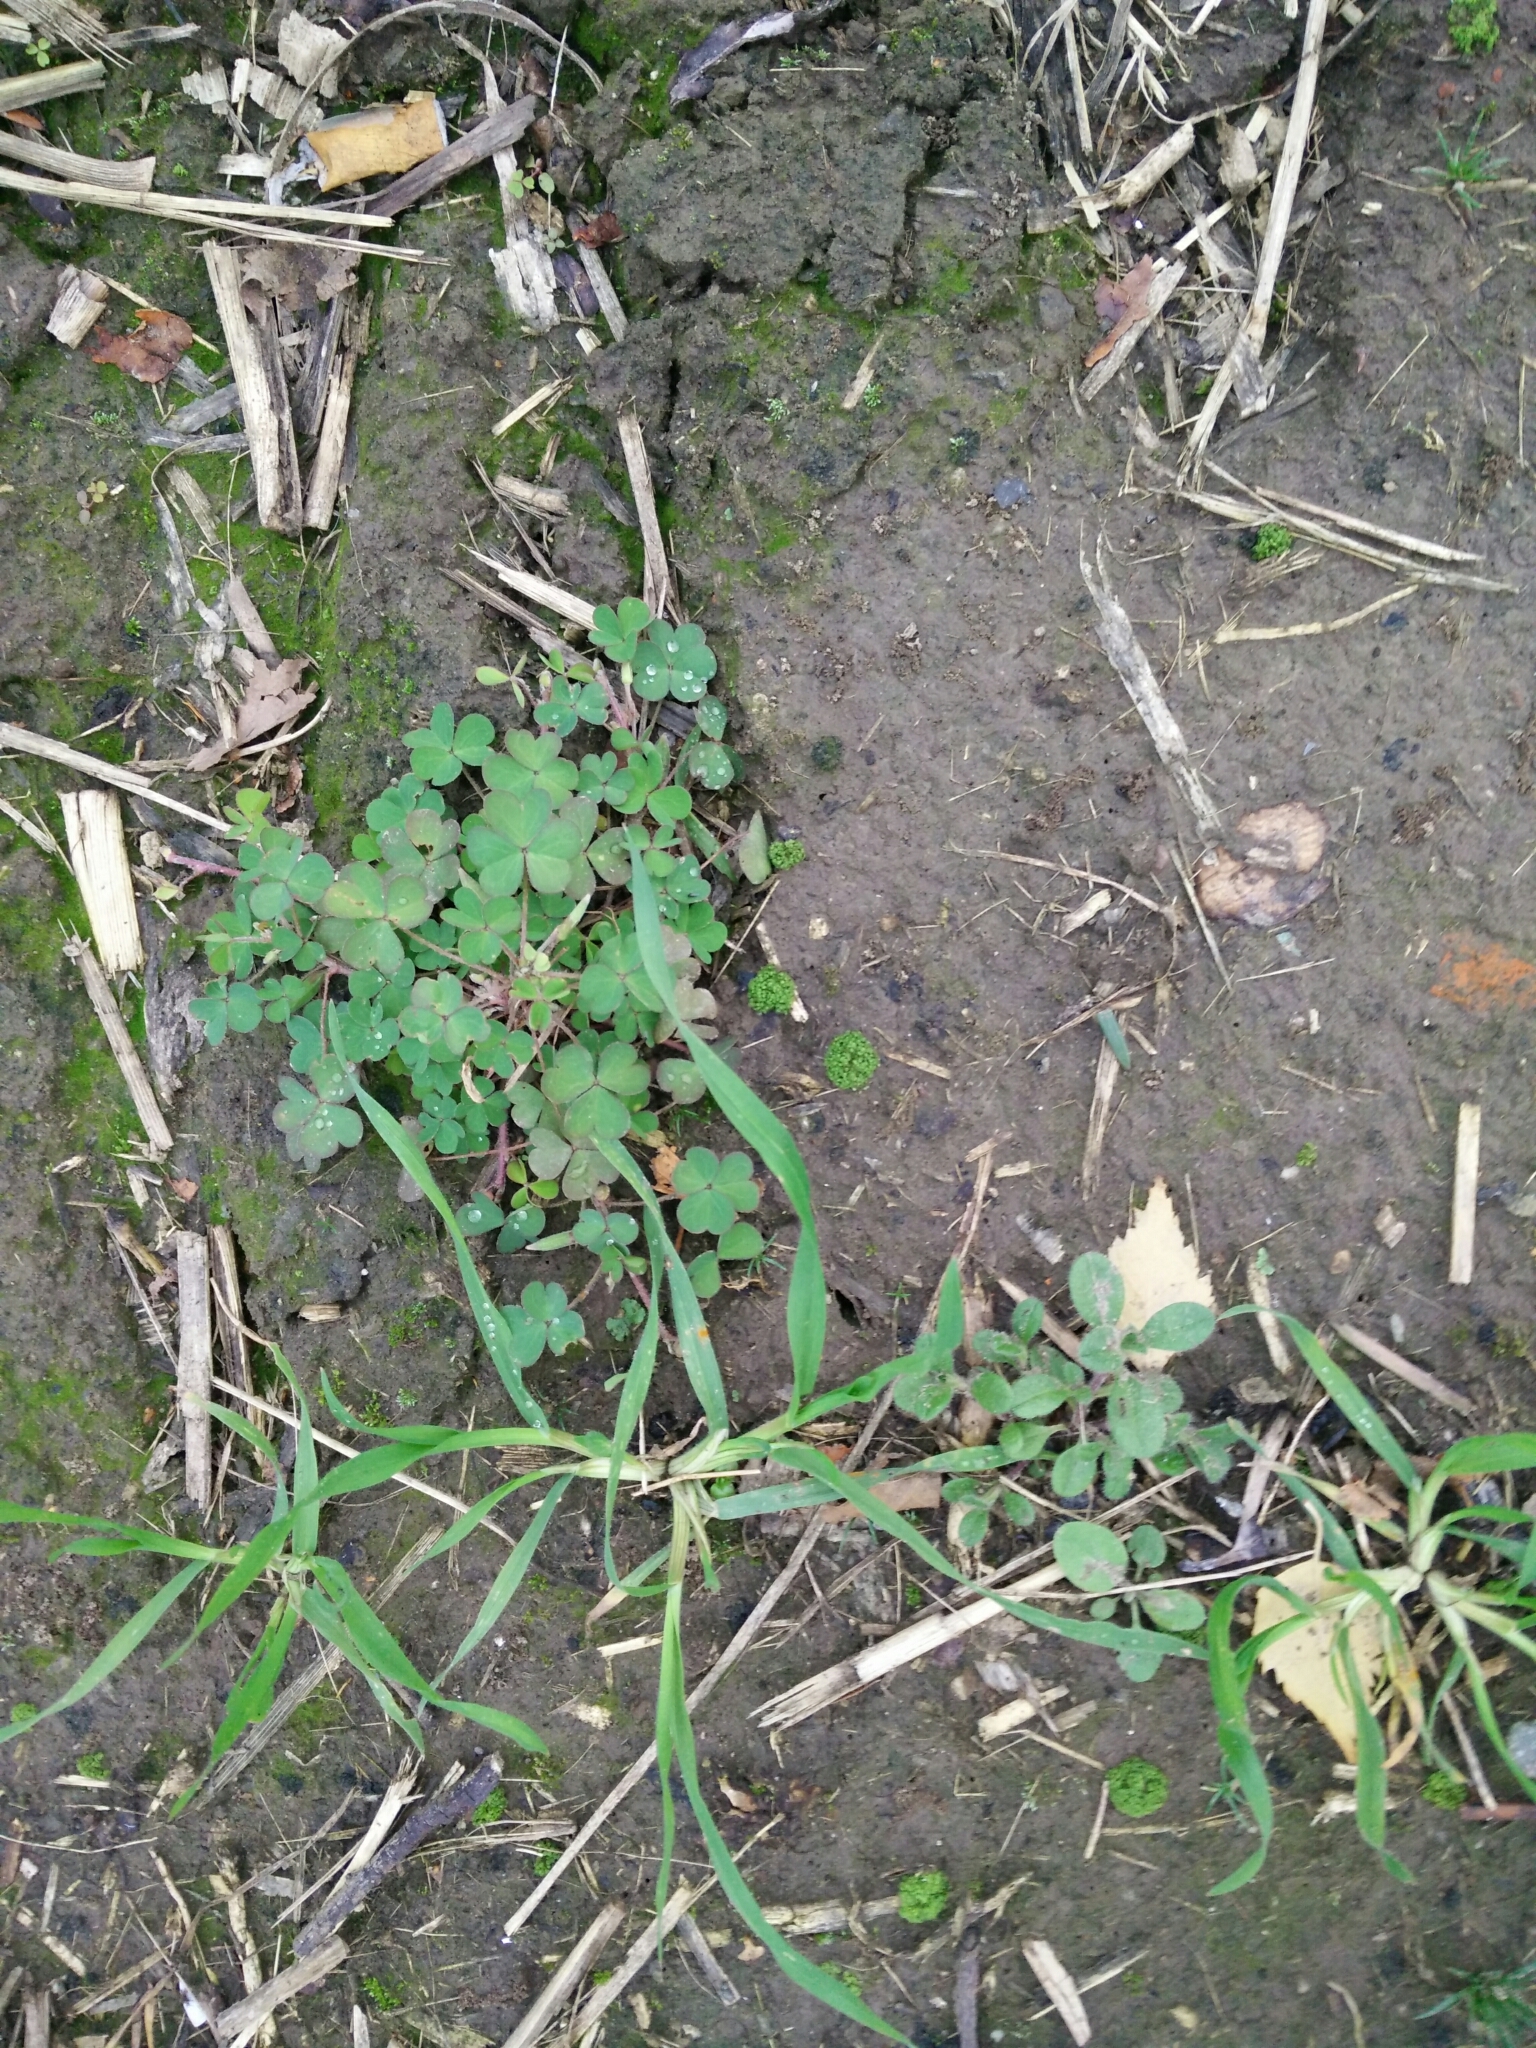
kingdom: Plantae
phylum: Tracheophyta
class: Magnoliopsida
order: Oxalidales
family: Oxalidaceae
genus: Oxalis
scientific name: Oxalis corniculata
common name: Procumbent yellow-sorrel
